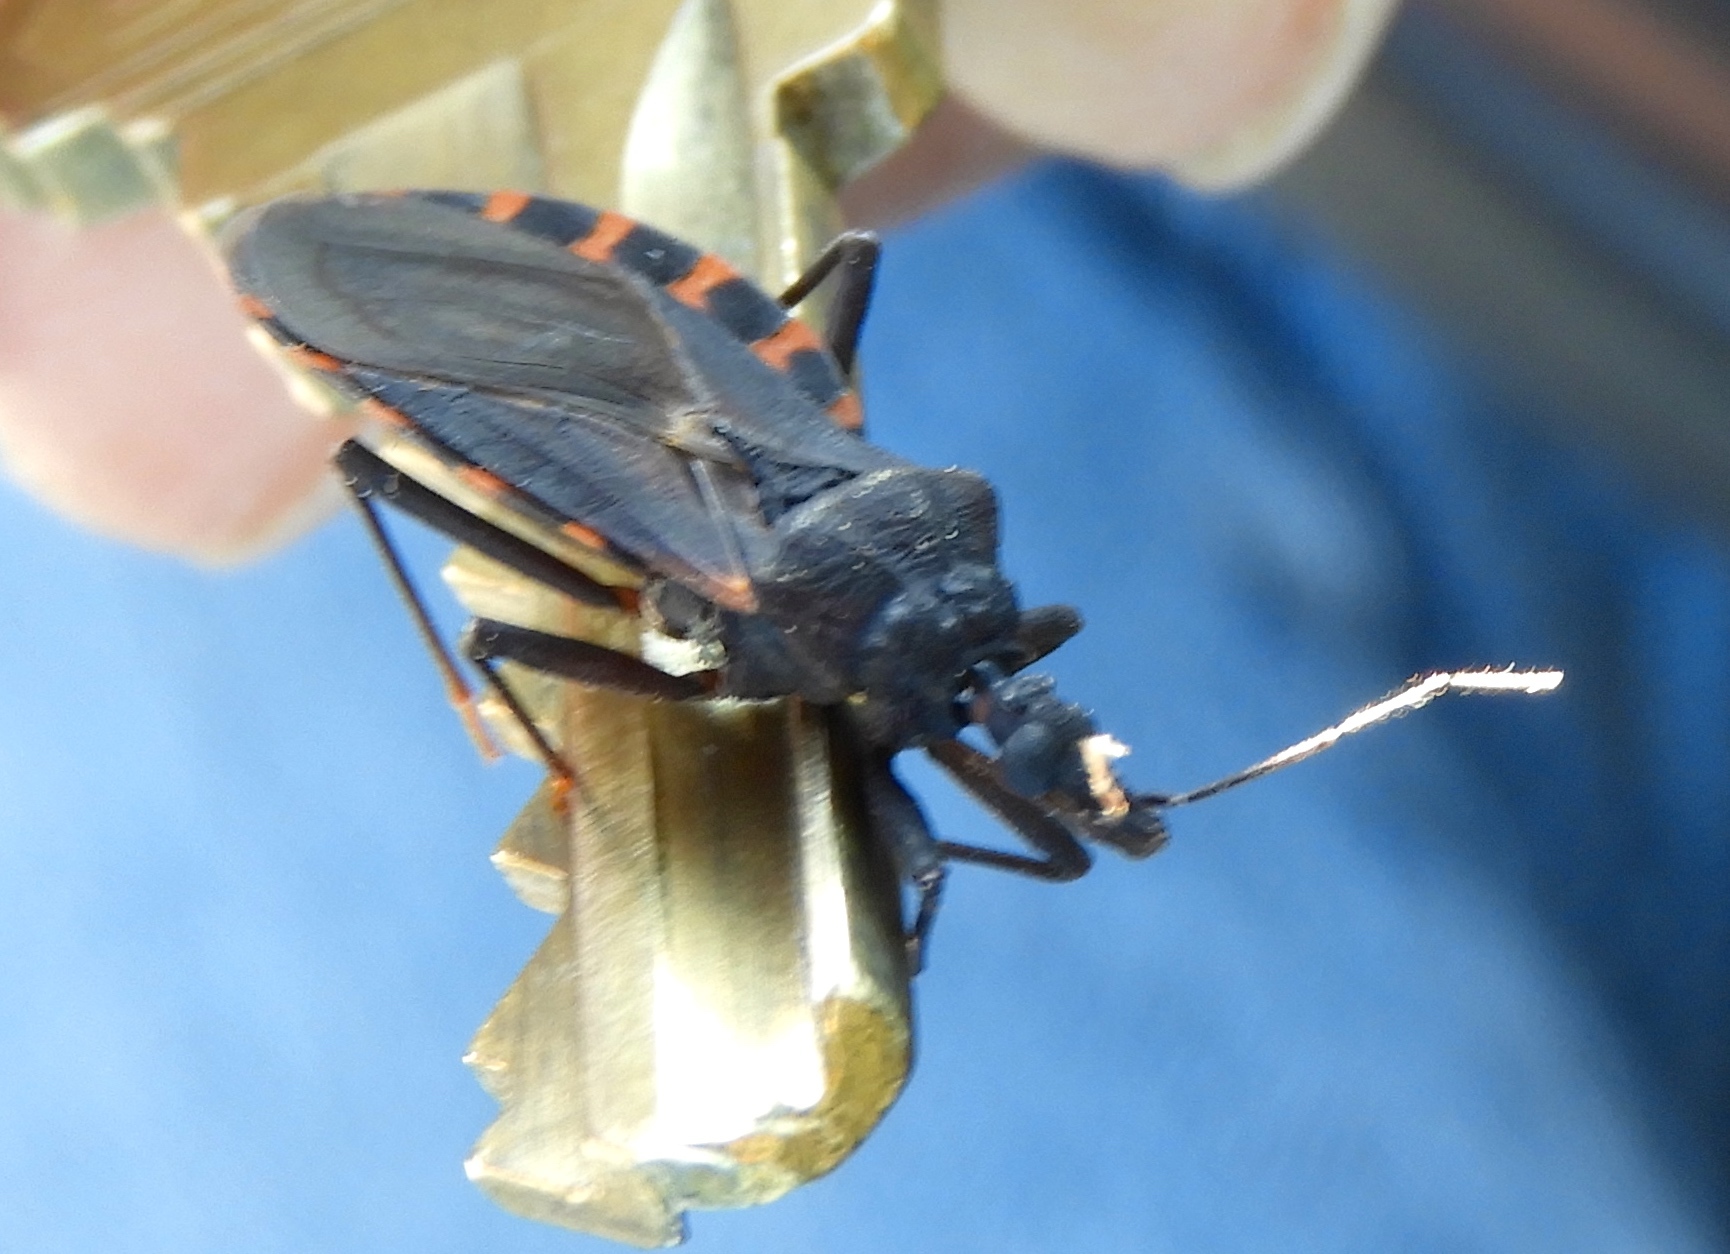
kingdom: Animalia
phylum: Arthropoda
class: Insecta
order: Hemiptera
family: Reduviidae
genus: Meccus
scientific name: Meccus longipennis
